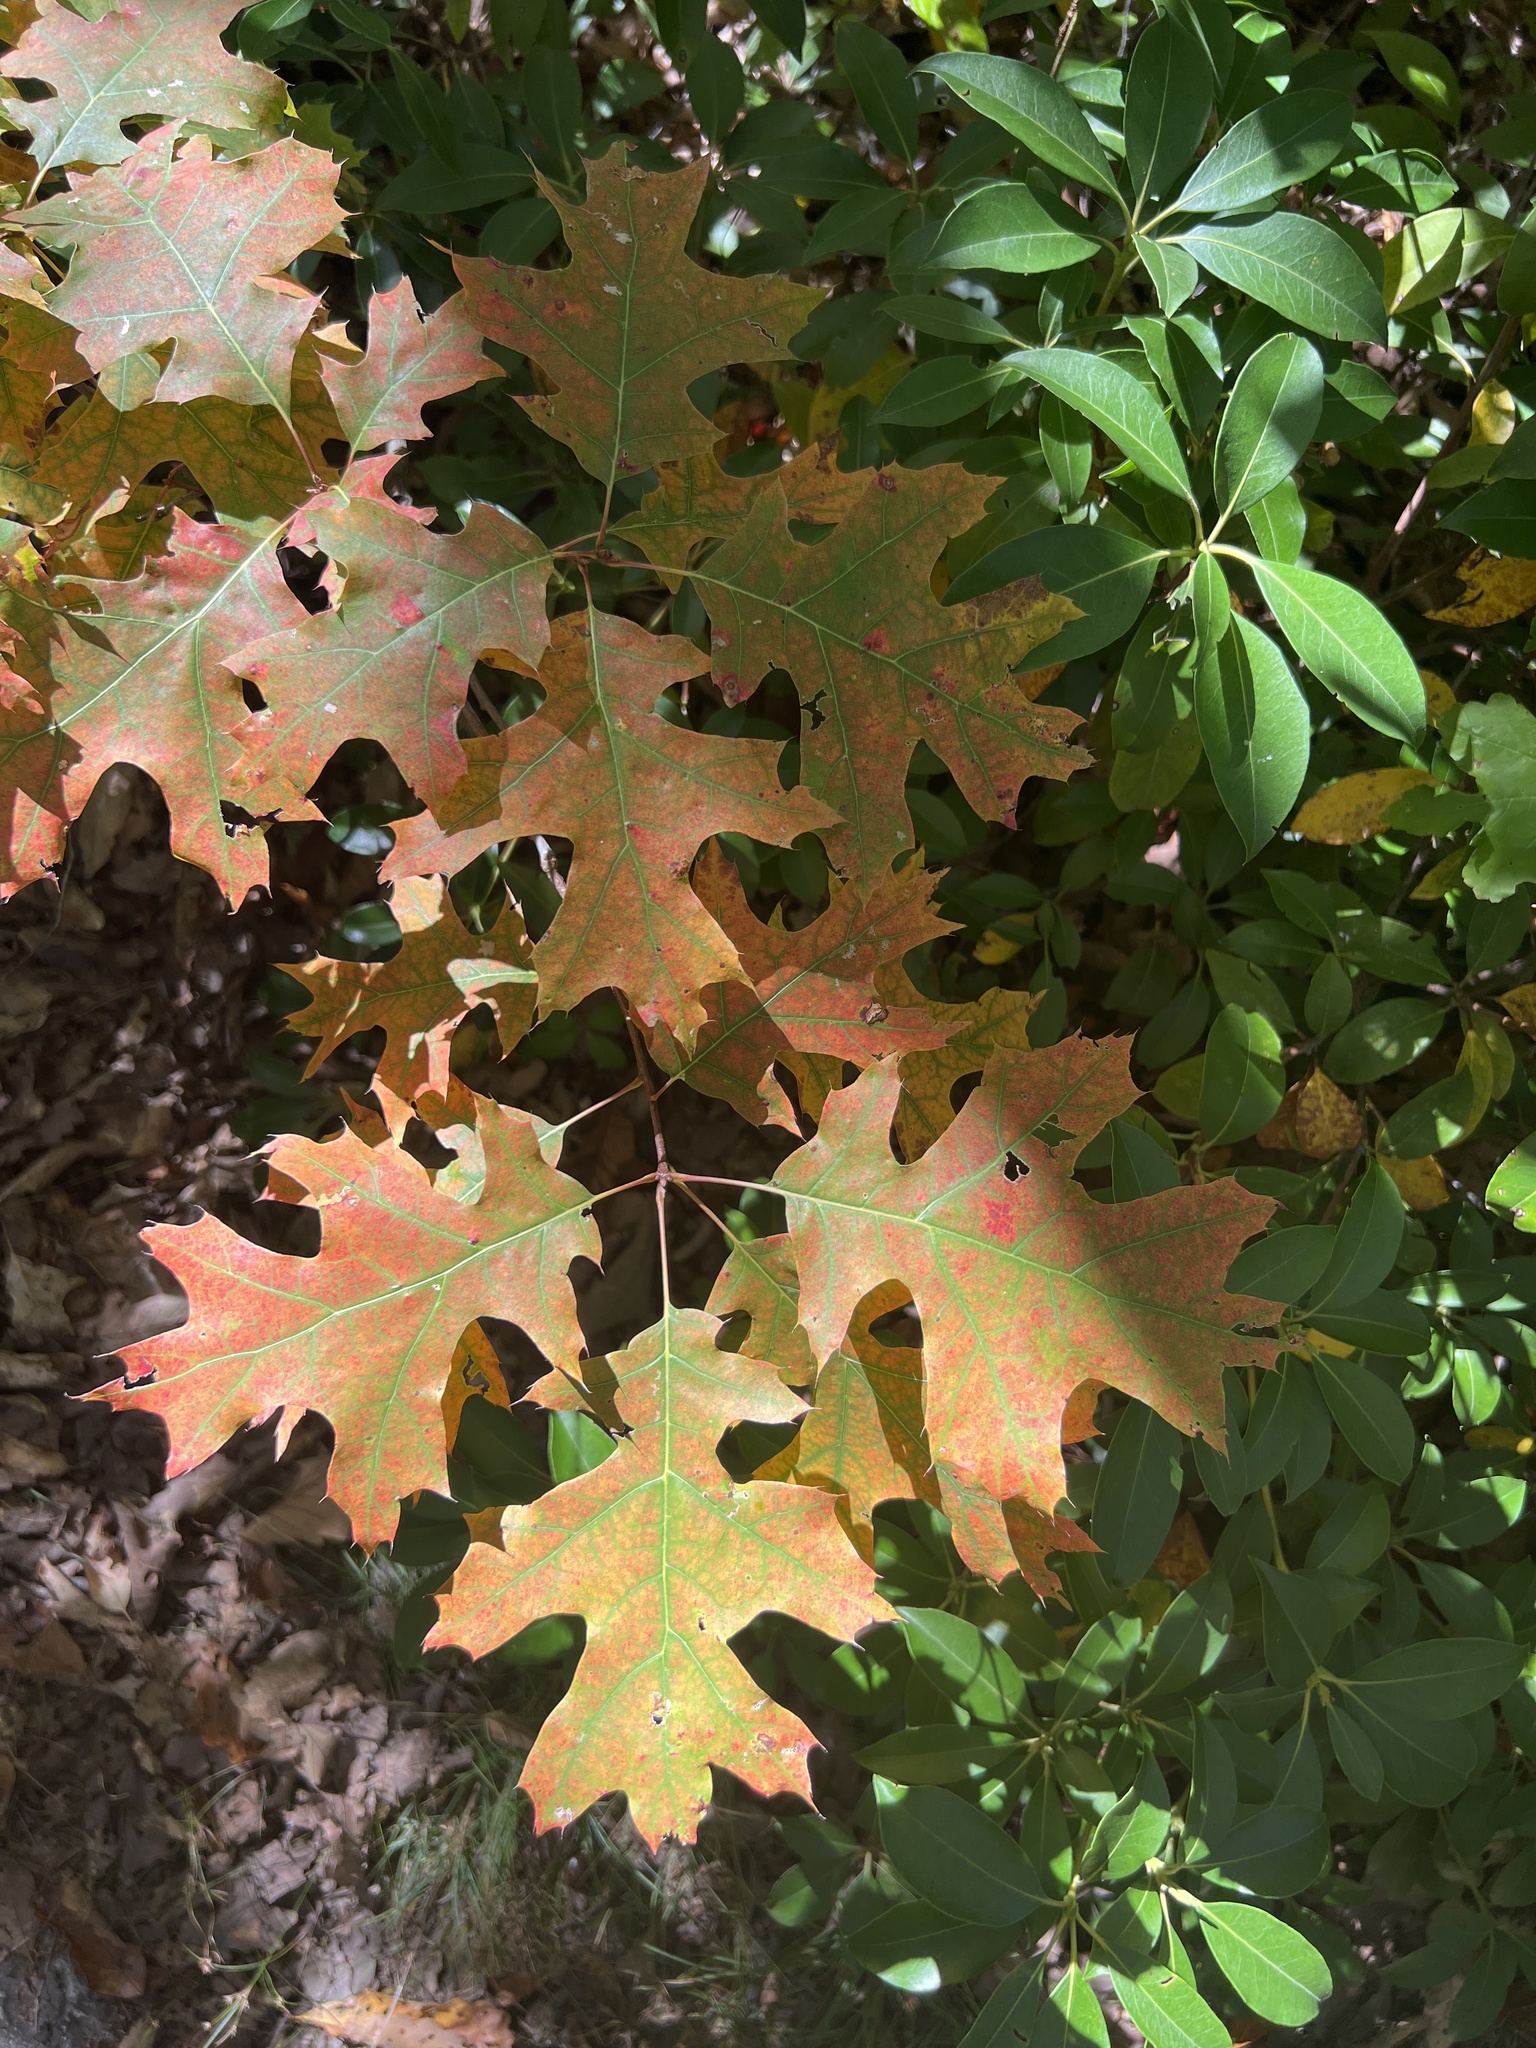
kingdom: Plantae
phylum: Tracheophyta
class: Magnoliopsida
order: Fagales
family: Fagaceae
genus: Quercus
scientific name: Quercus coccinea
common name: Scarlet oak
